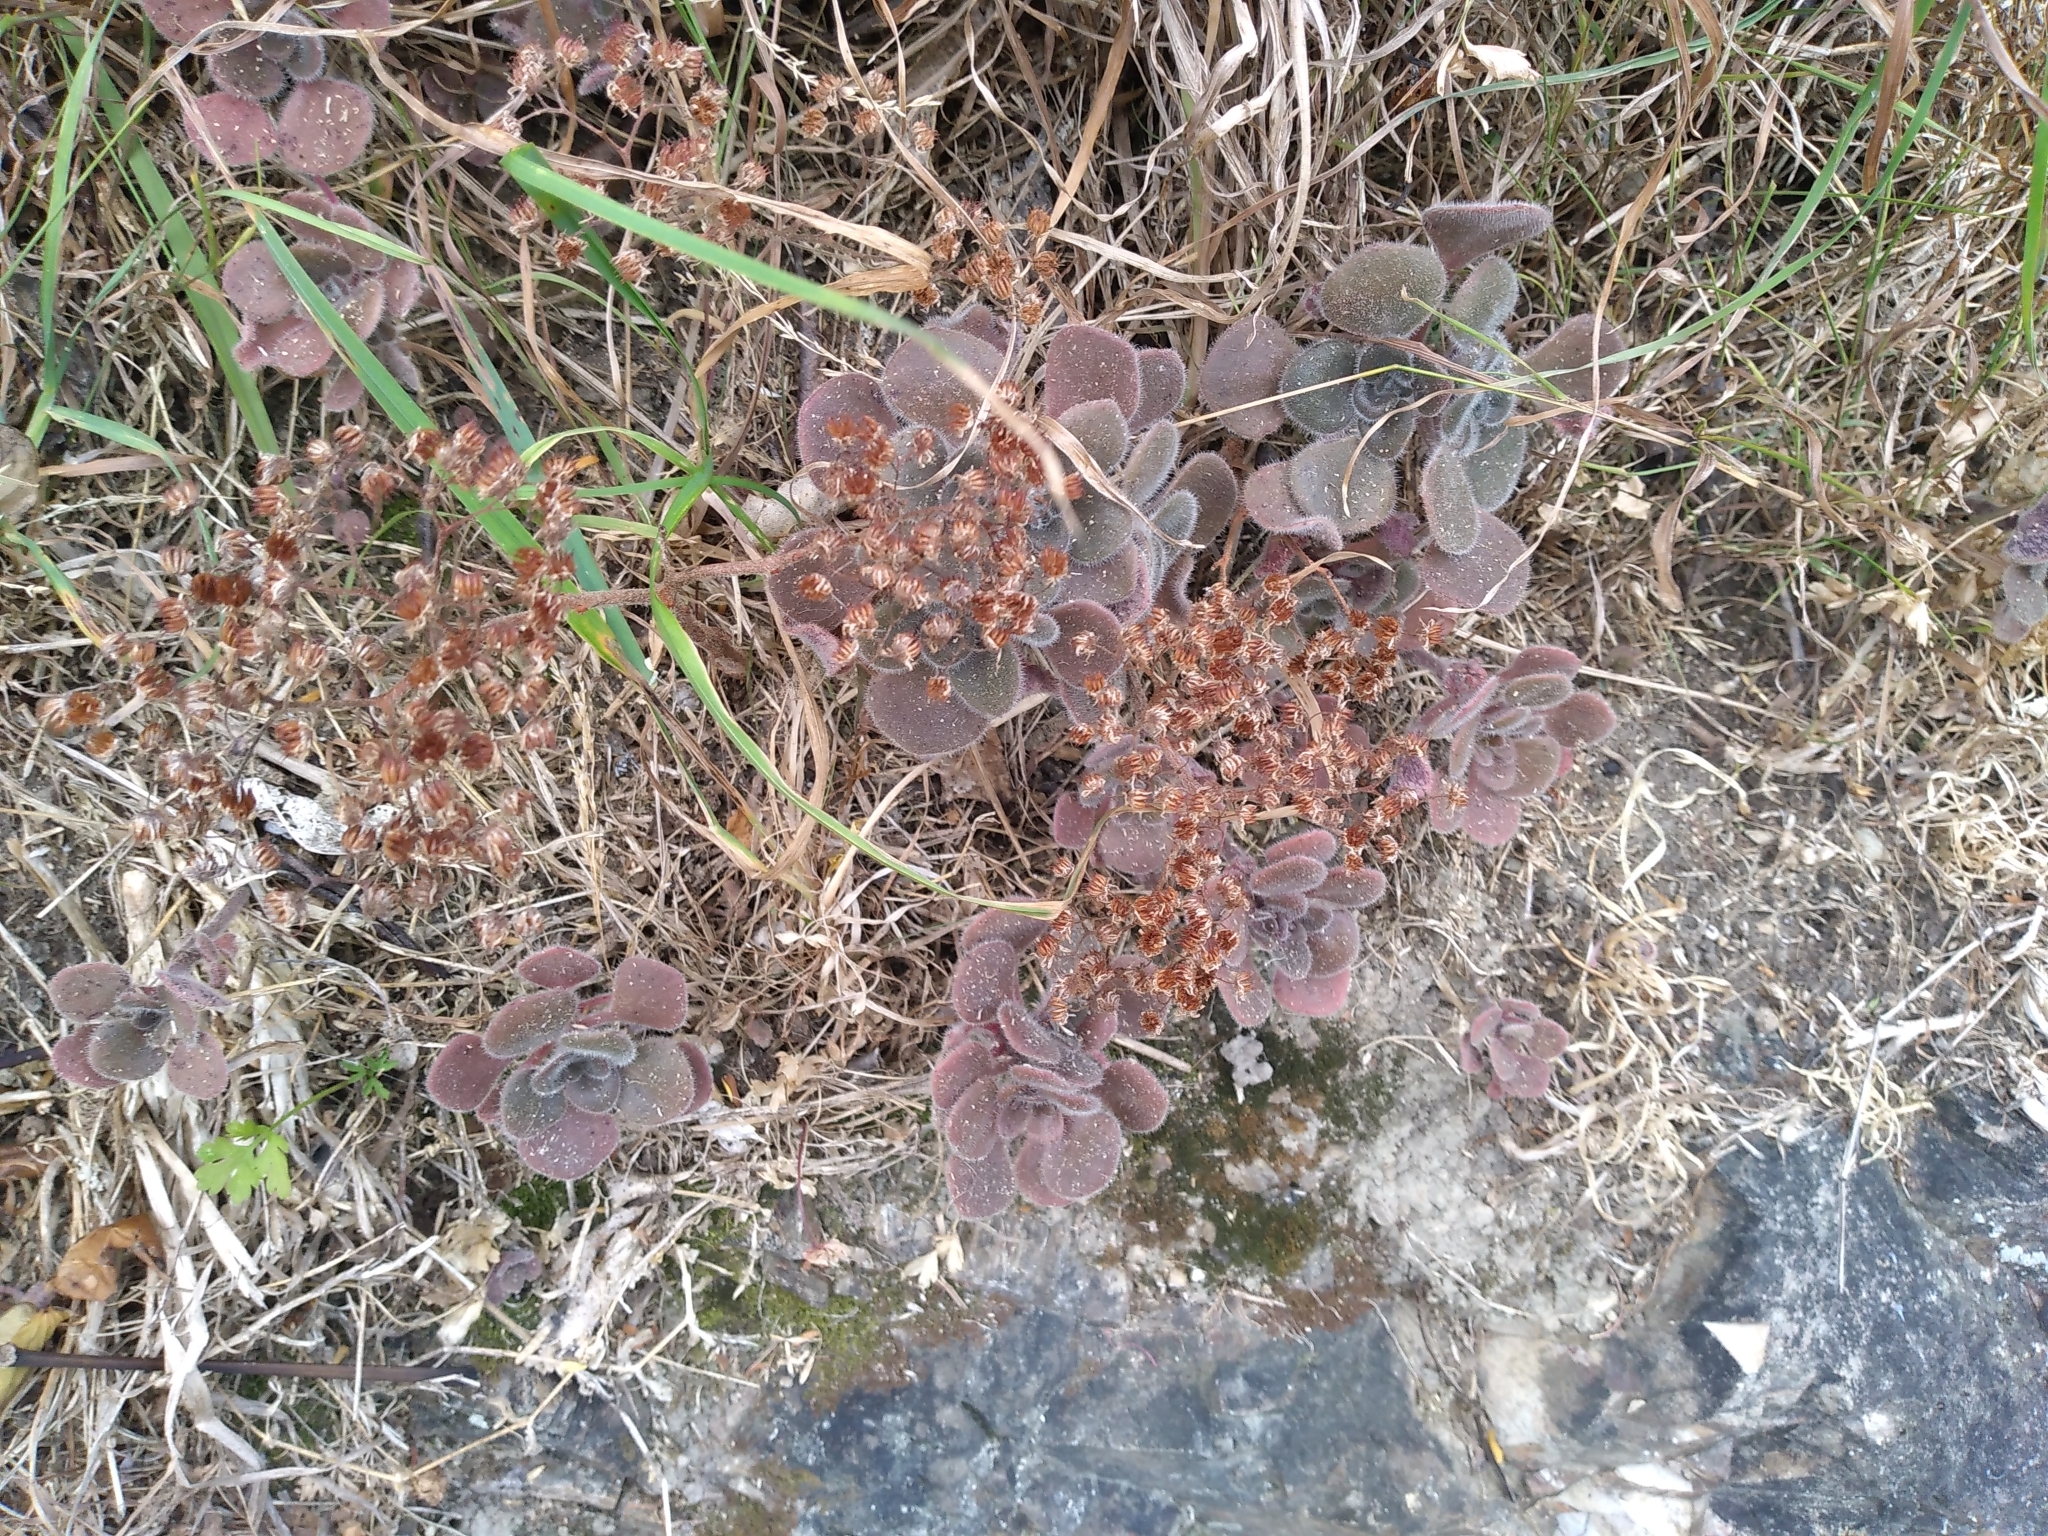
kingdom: Plantae
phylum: Tracheophyta
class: Magnoliopsida
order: Saxifragales
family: Crassulaceae
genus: Aichryson
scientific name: Aichryson laxum
